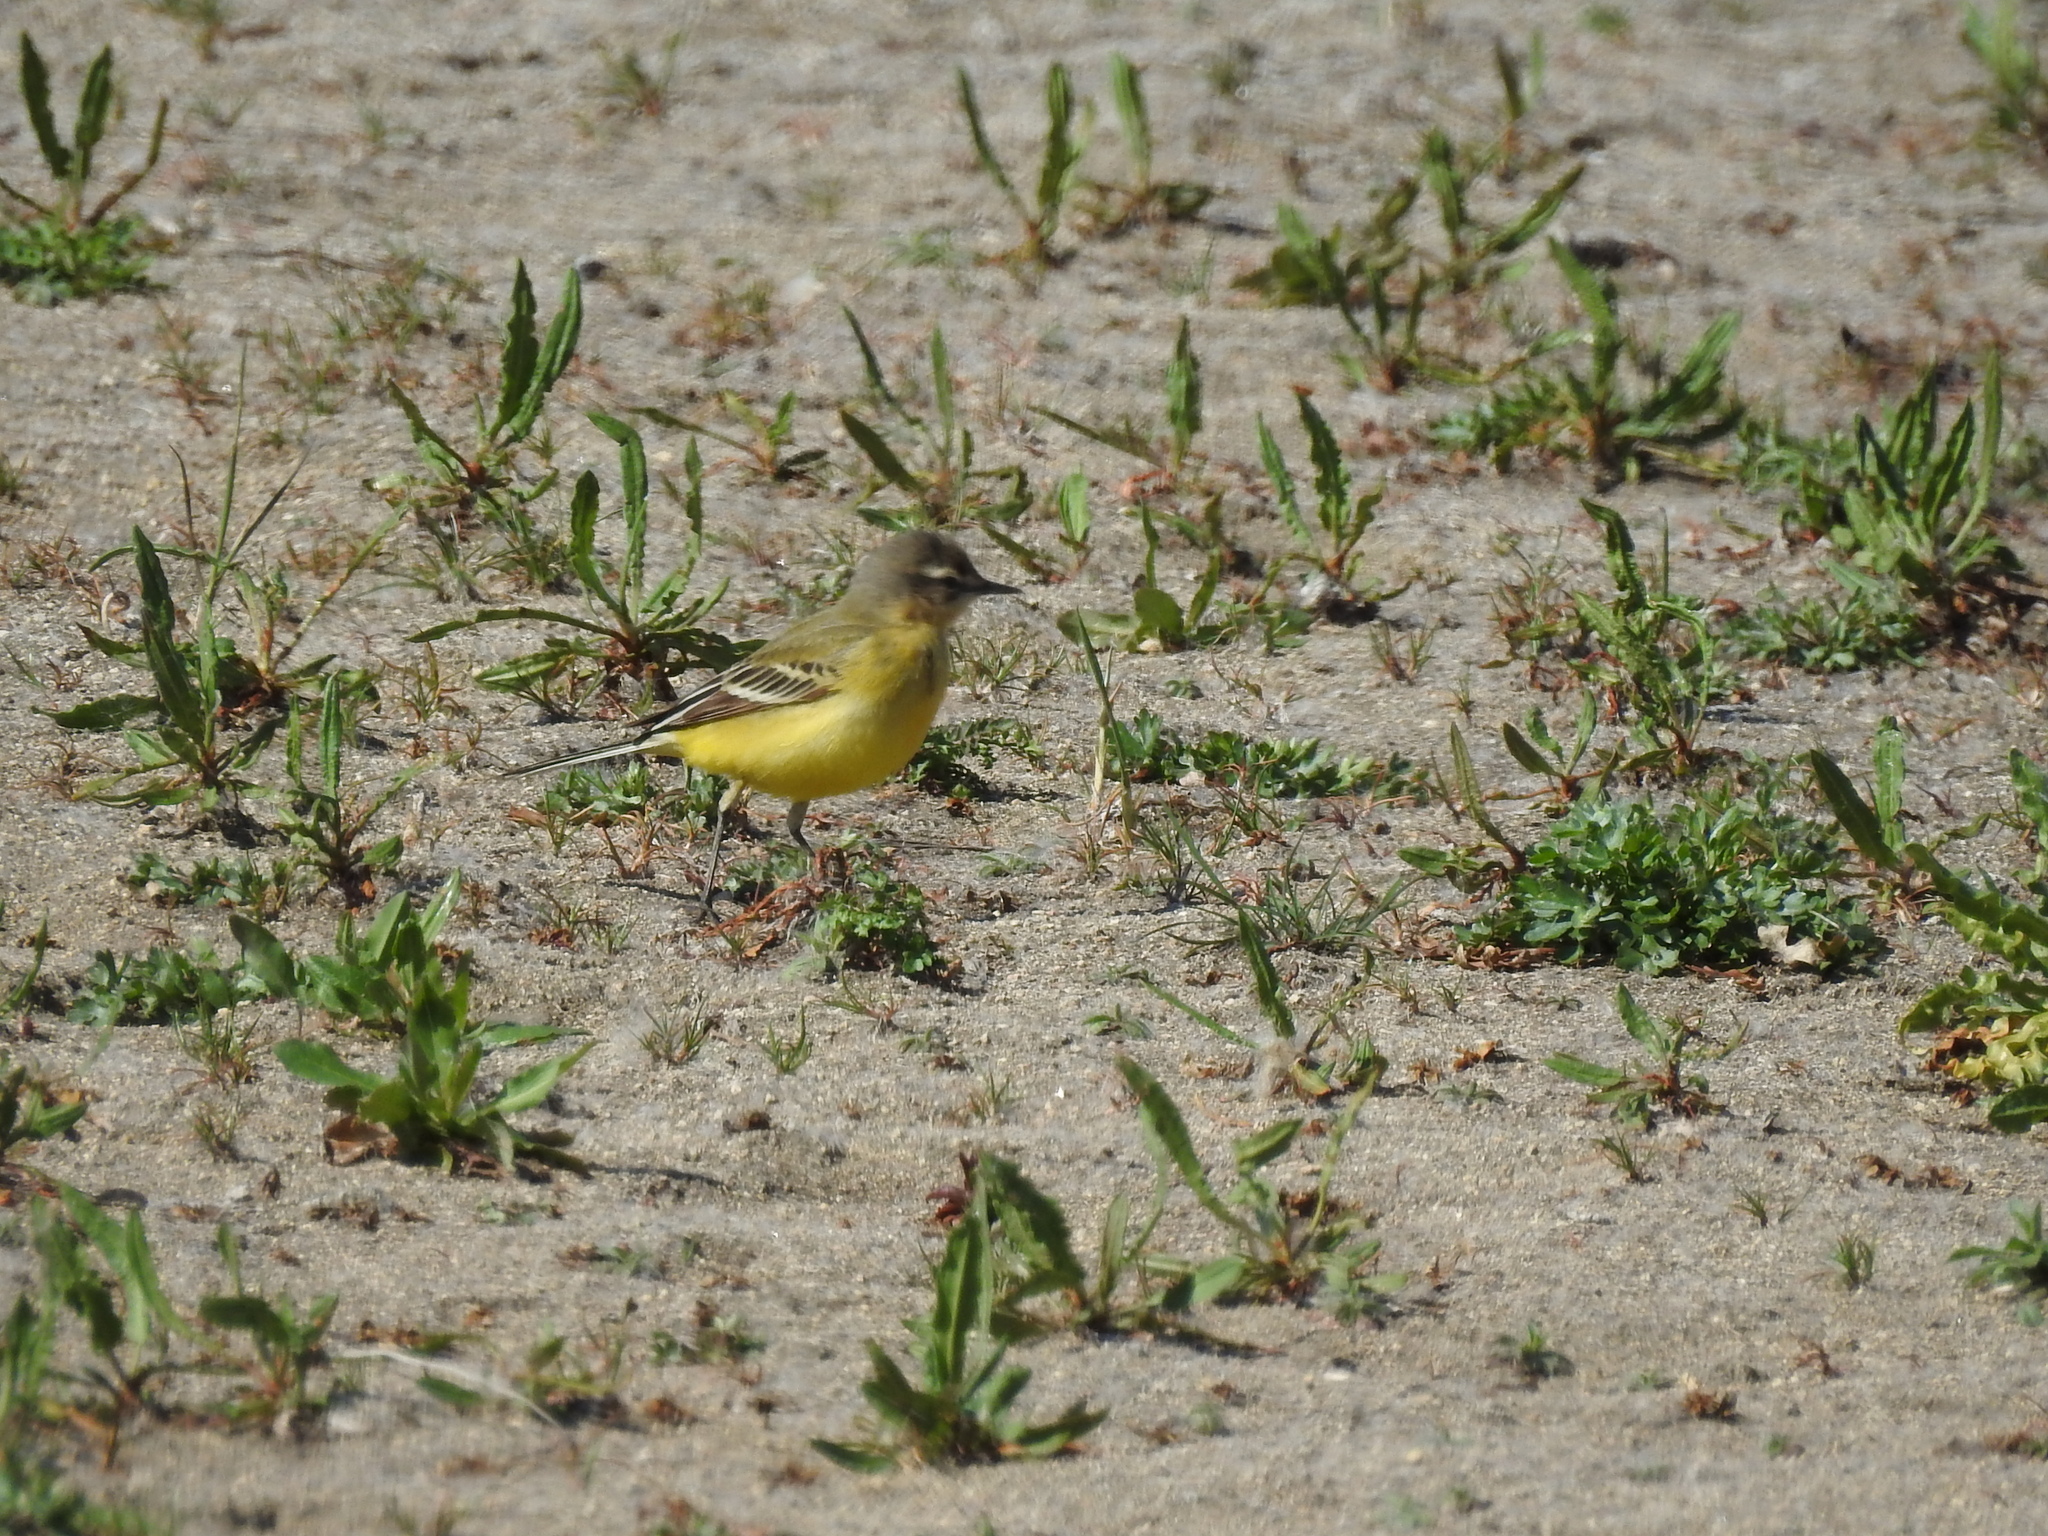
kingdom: Animalia
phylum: Chordata
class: Aves
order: Passeriformes
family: Motacillidae
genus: Motacilla
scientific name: Motacilla flava
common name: Western yellow wagtail
